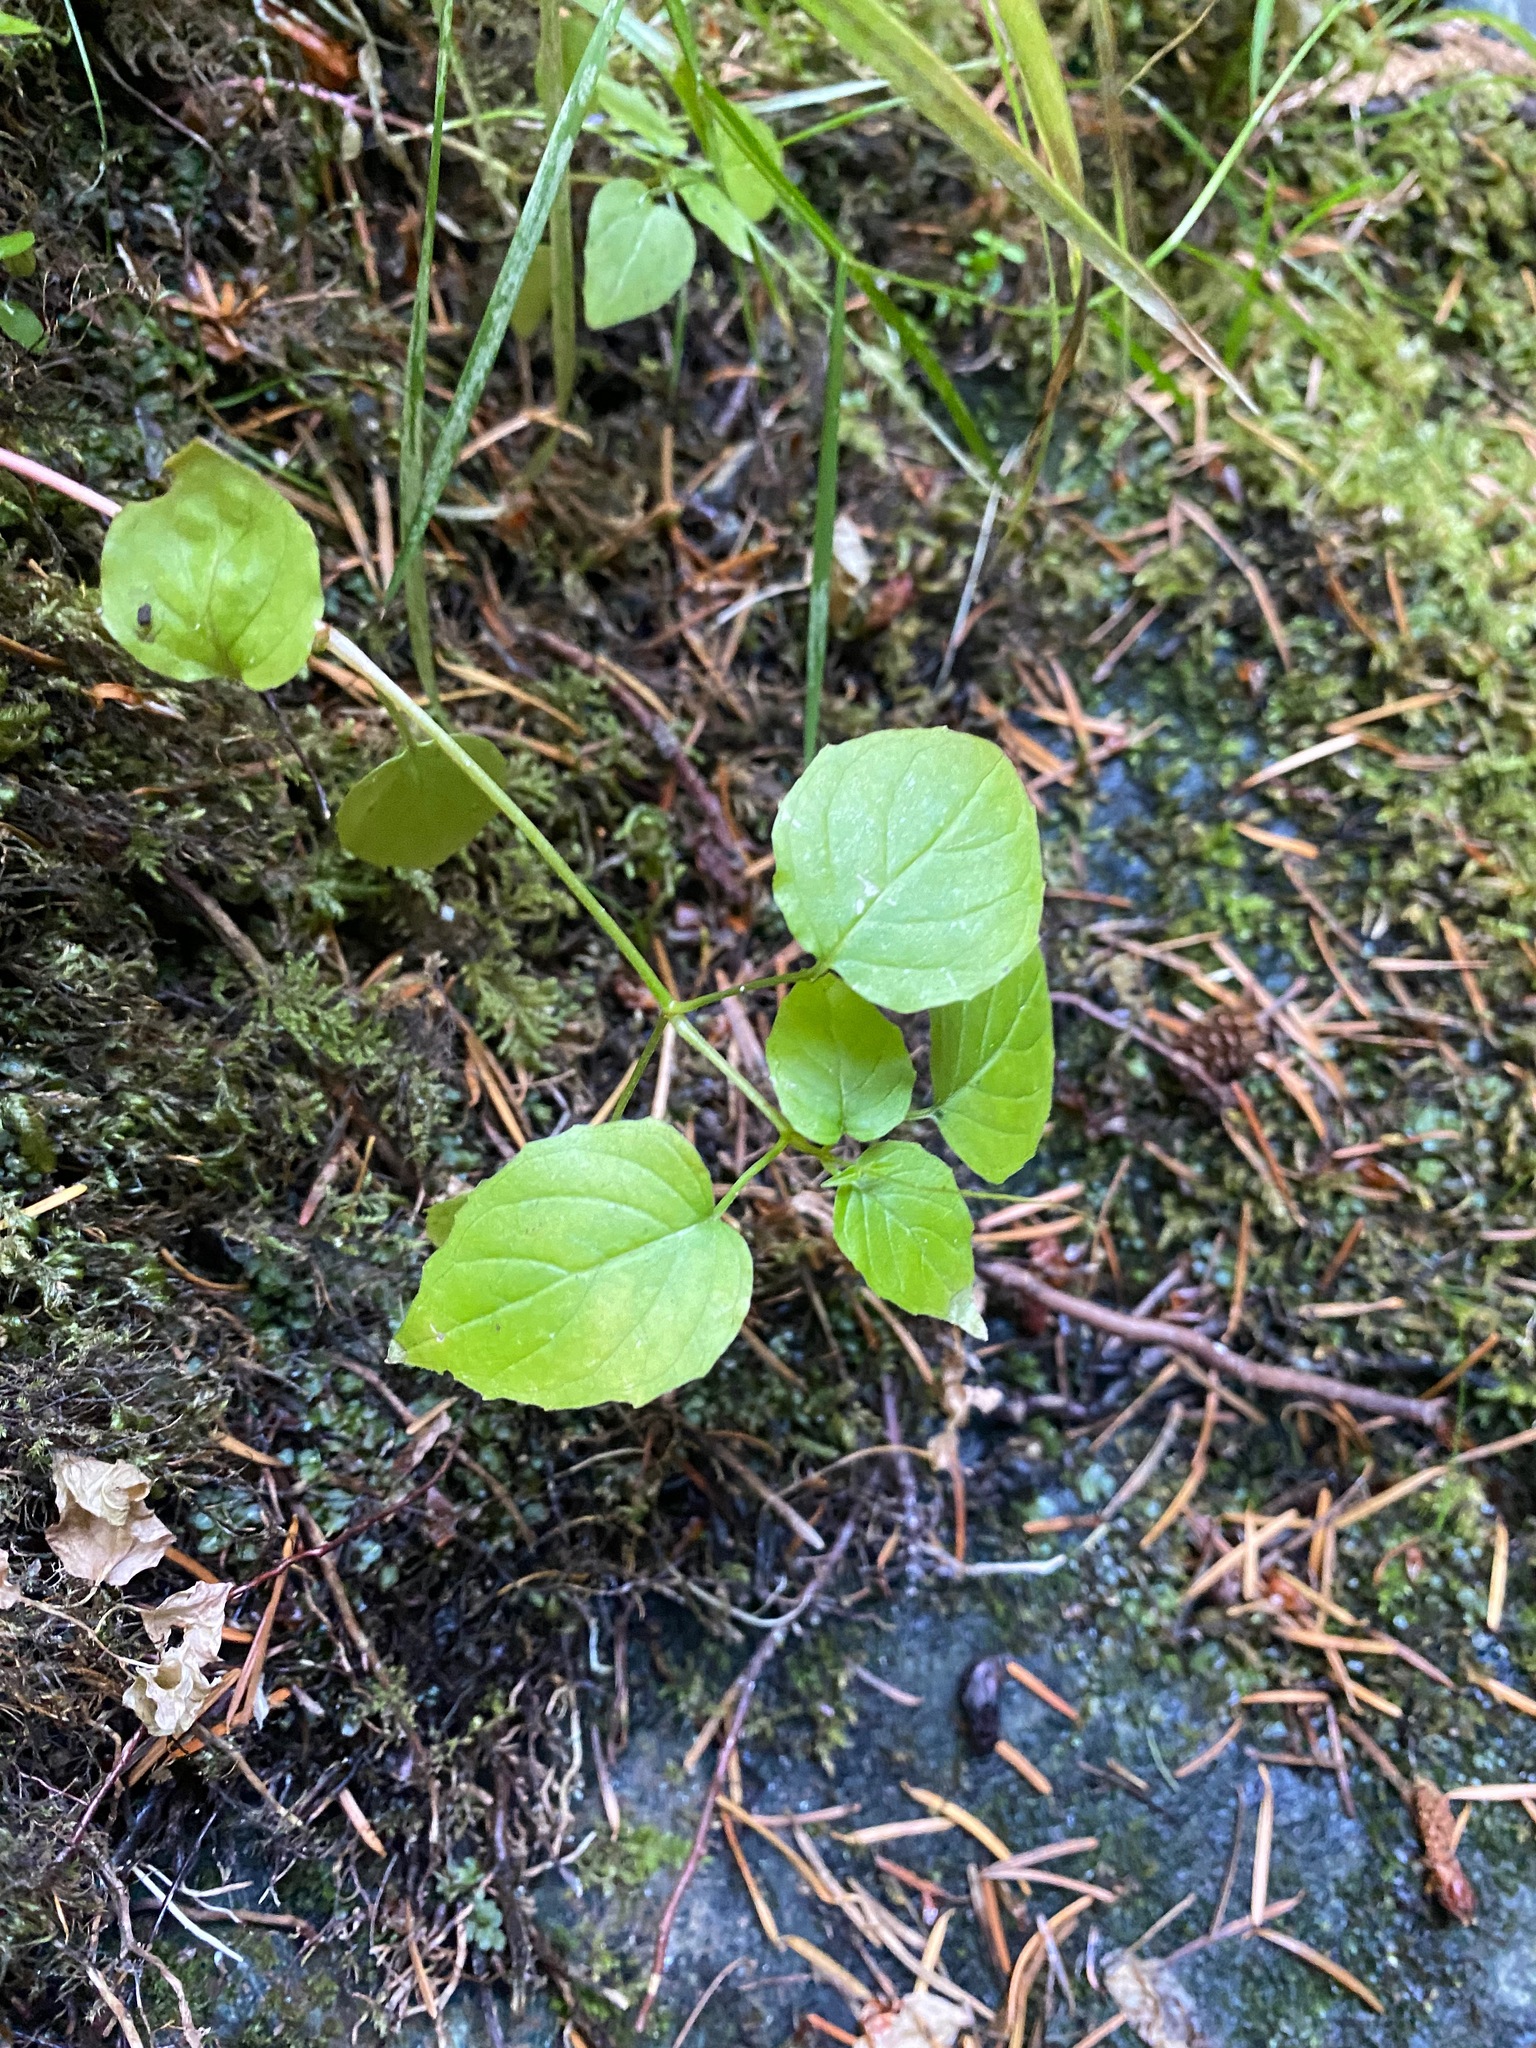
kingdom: Plantae
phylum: Tracheophyta
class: Magnoliopsida
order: Myrtales
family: Onagraceae
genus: Circaea
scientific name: Circaea alpina
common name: Alpine enchanter's-nightshade
